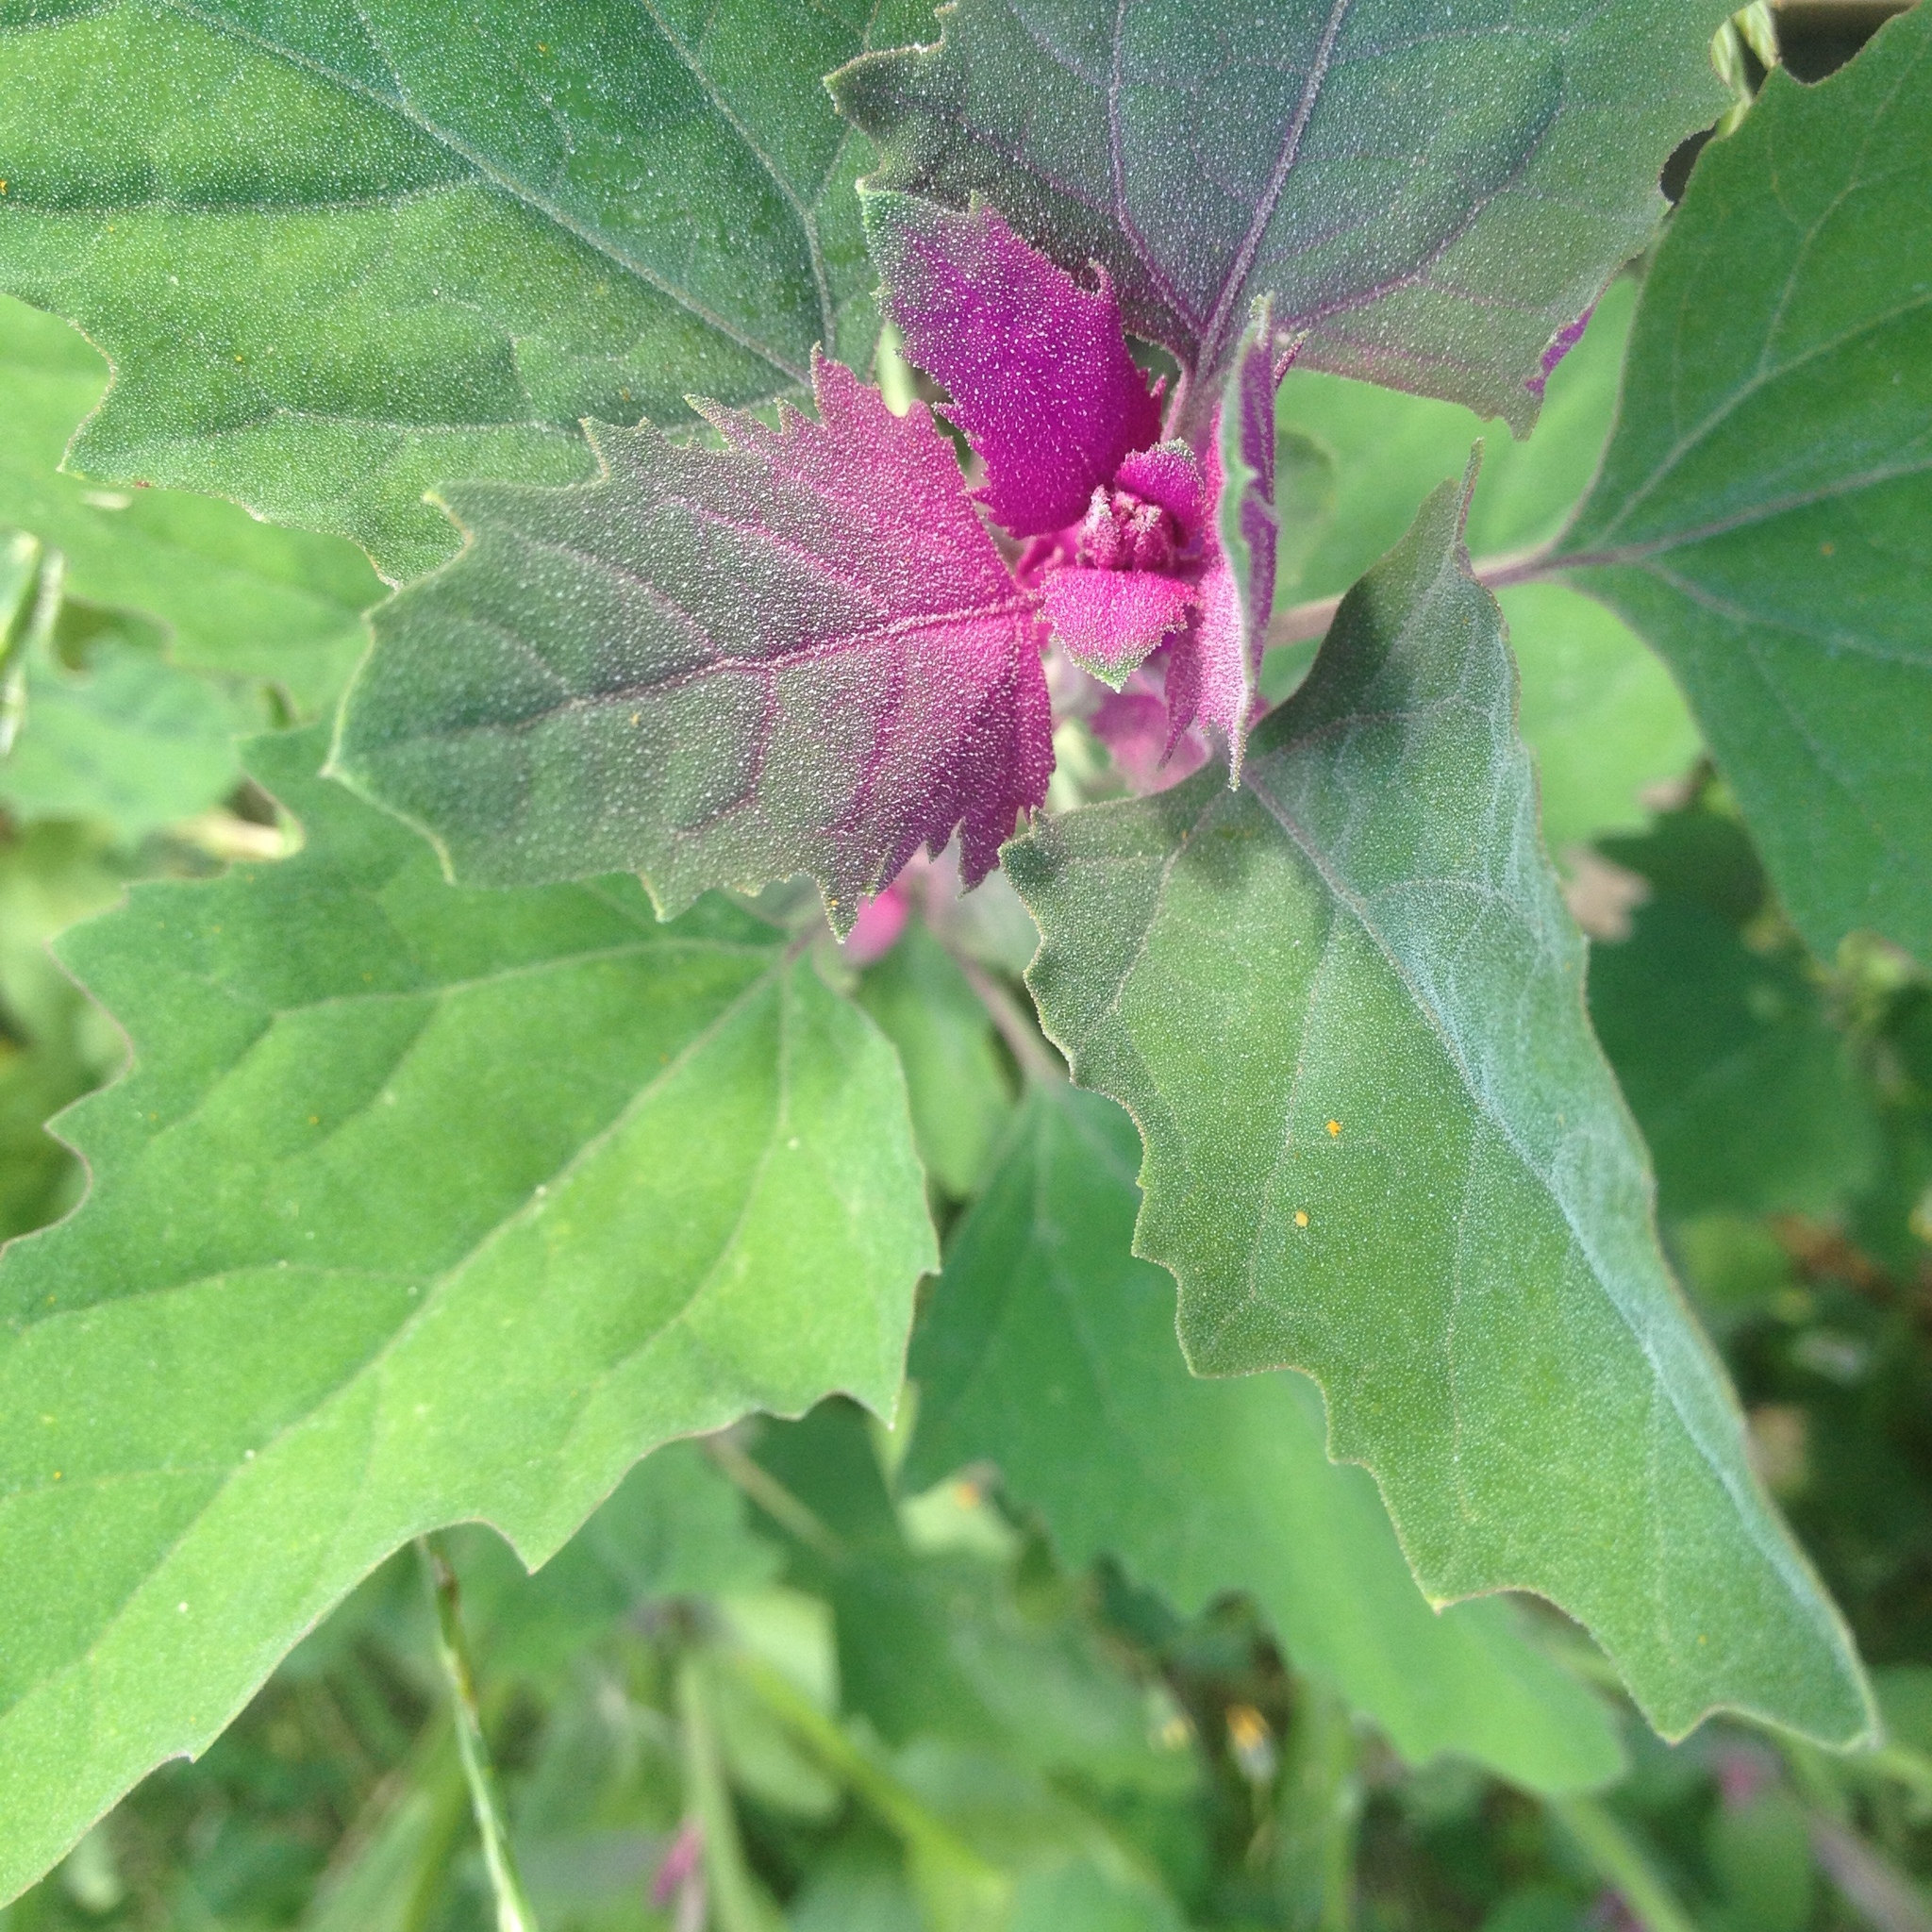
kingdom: Plantae
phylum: Tracheophyta
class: Magnoliopsida
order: Caryophyllales
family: Amaranthaceae
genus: Chenopodium
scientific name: Chenopodium giganteum
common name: Magentaspreen
